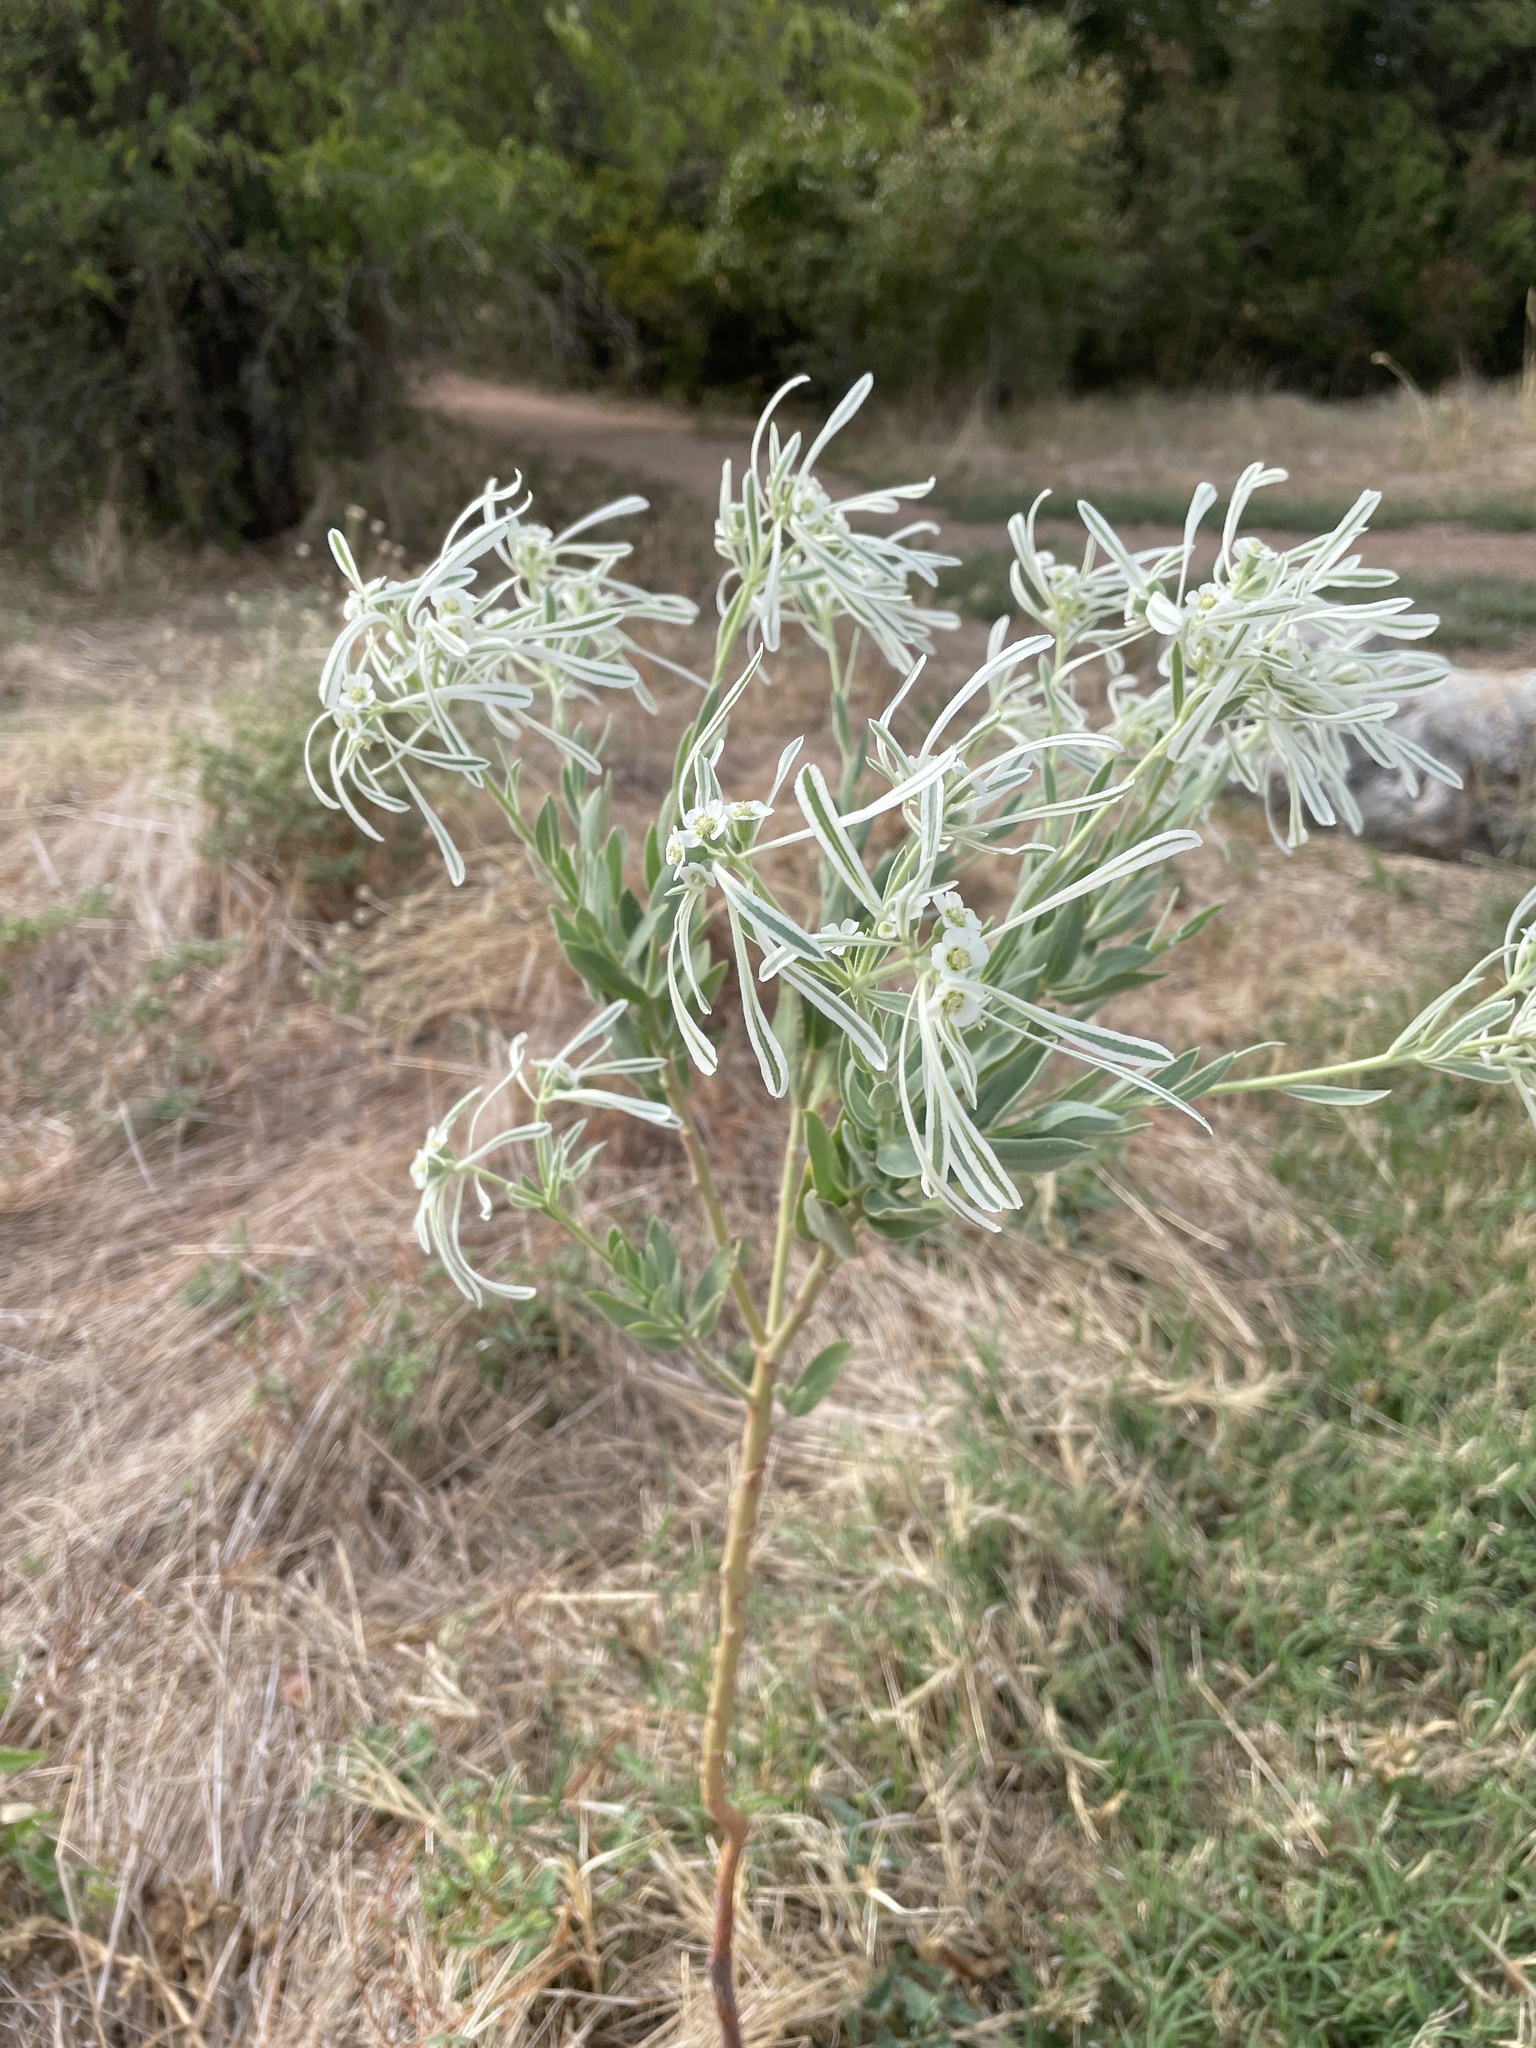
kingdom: Plantae
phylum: Tracheophyta
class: Magnoliopsida
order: Malpighiales
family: Euphorbiaceae
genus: Euphorbia
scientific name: Euphorbia bicolor
